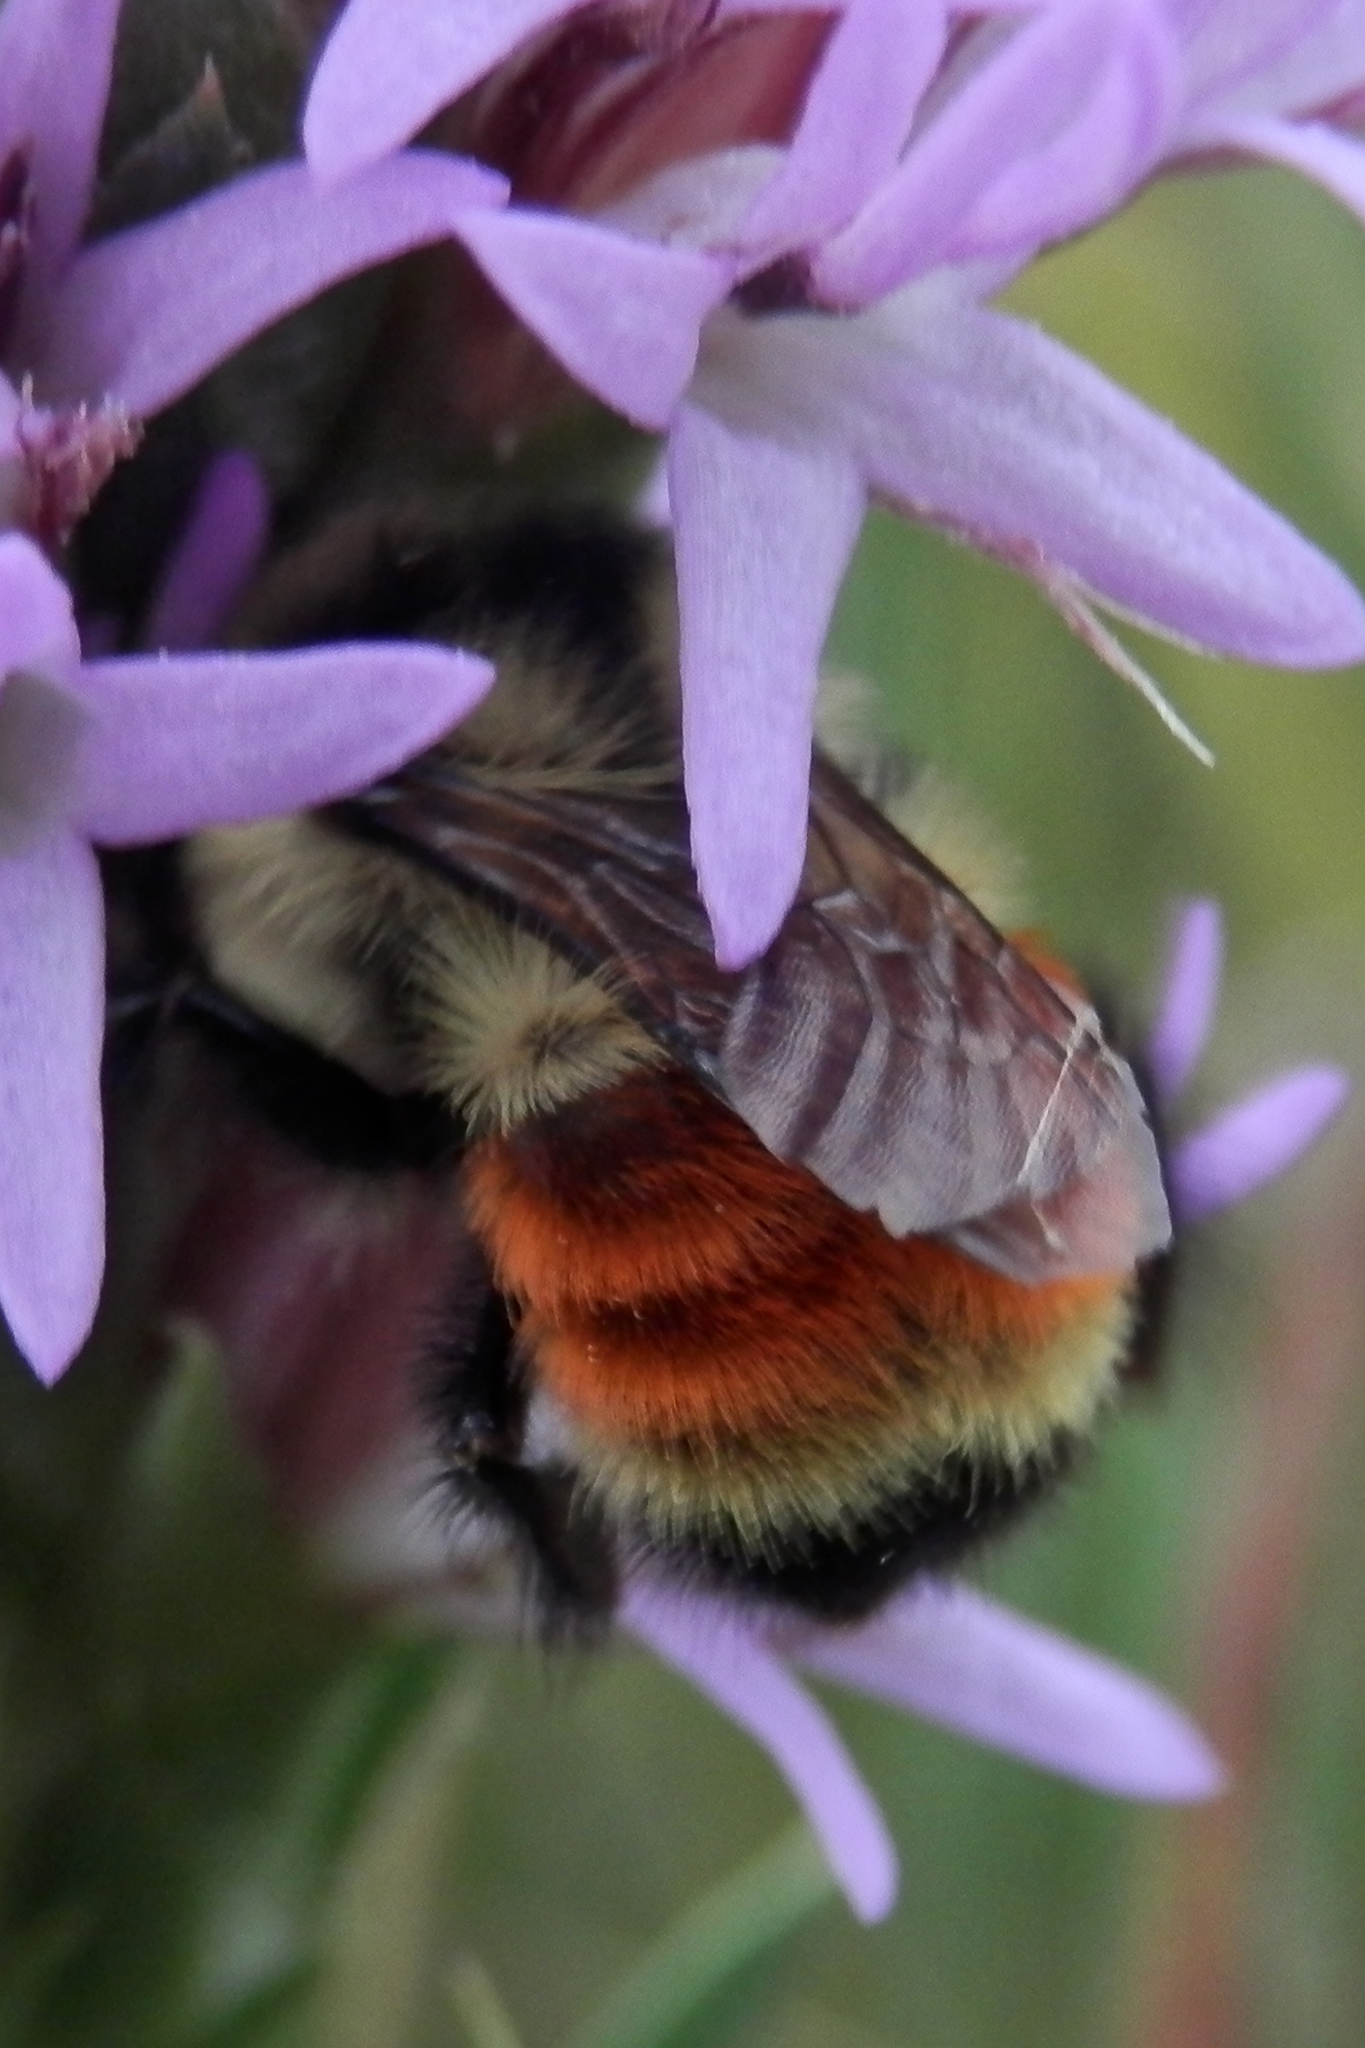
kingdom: Animalia
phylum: Arthropoda
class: Insecta
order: Hymenoptera
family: Apidae
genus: Bombus
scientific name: Bombus ternarius
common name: Tri-colored bumble bee
